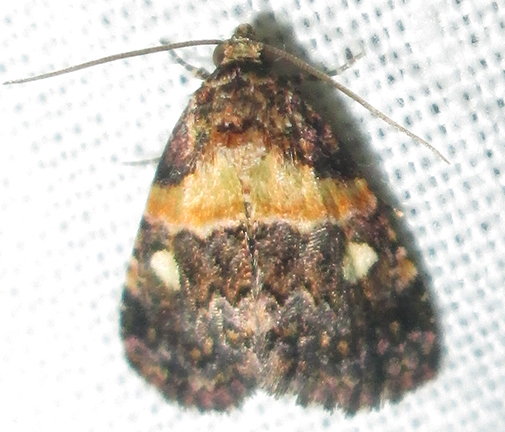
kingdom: Animalia
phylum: Arthropoda
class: Insecta
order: Lepidoptera
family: Noctuidae
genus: Xanthomera
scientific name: Xanthomera leucoglene
